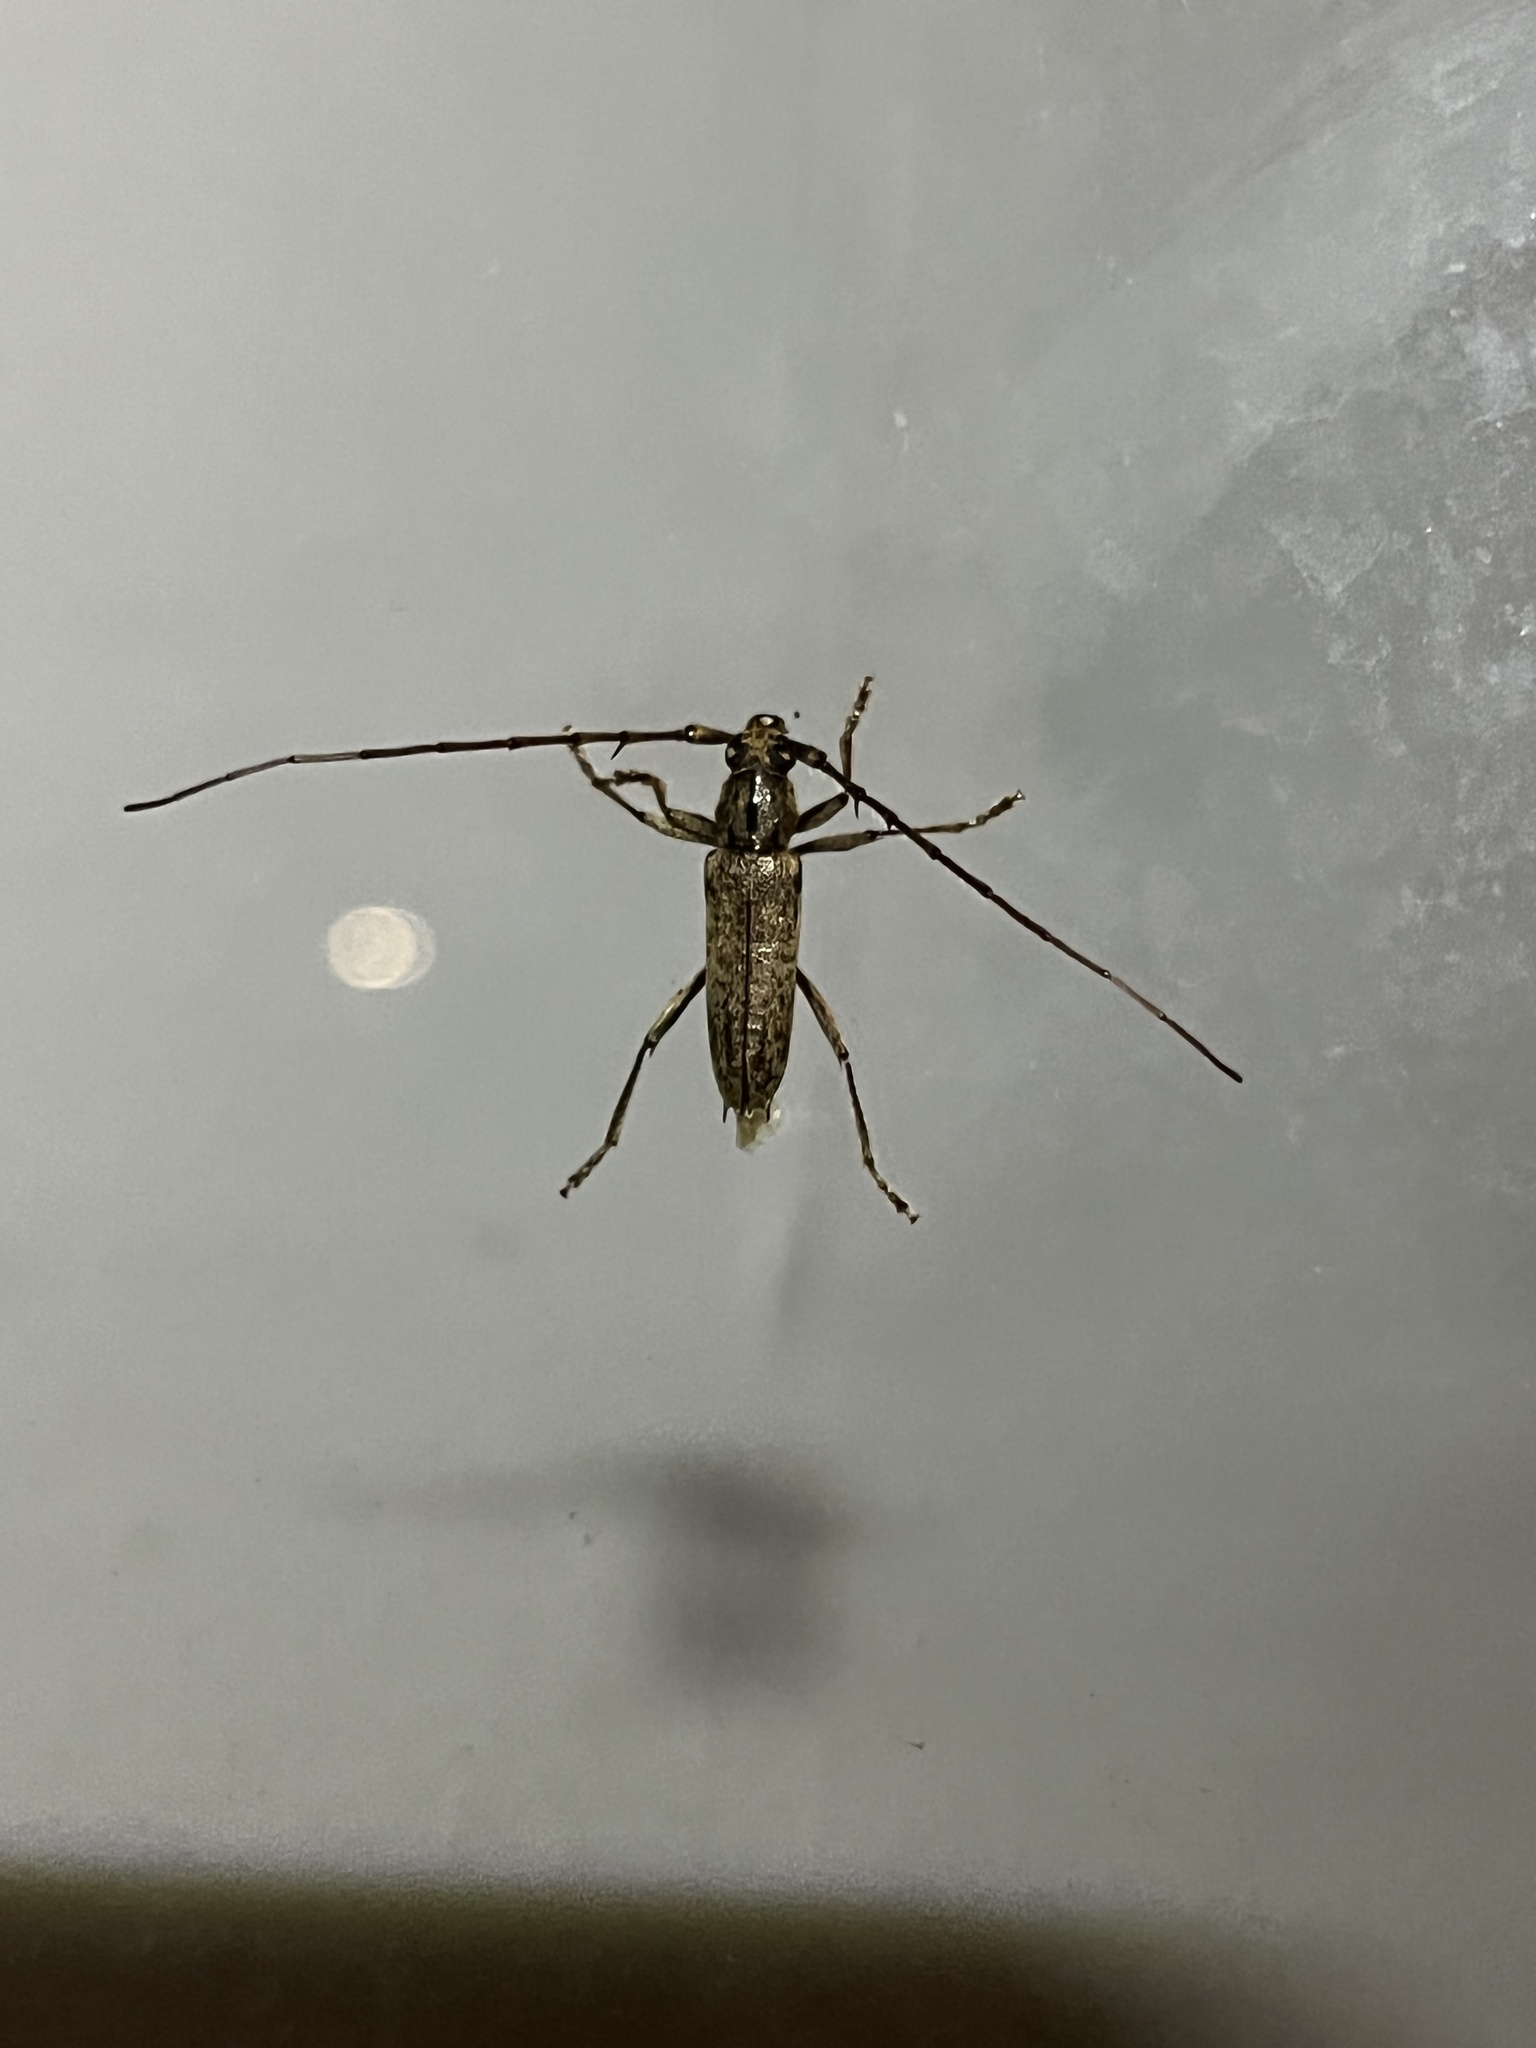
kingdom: Animalia
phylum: Arthropoda
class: Insecta
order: Coleoptera
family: Cerambycidae
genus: Elaphidion
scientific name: Elaphidion mucronatum
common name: Spined oak borer
